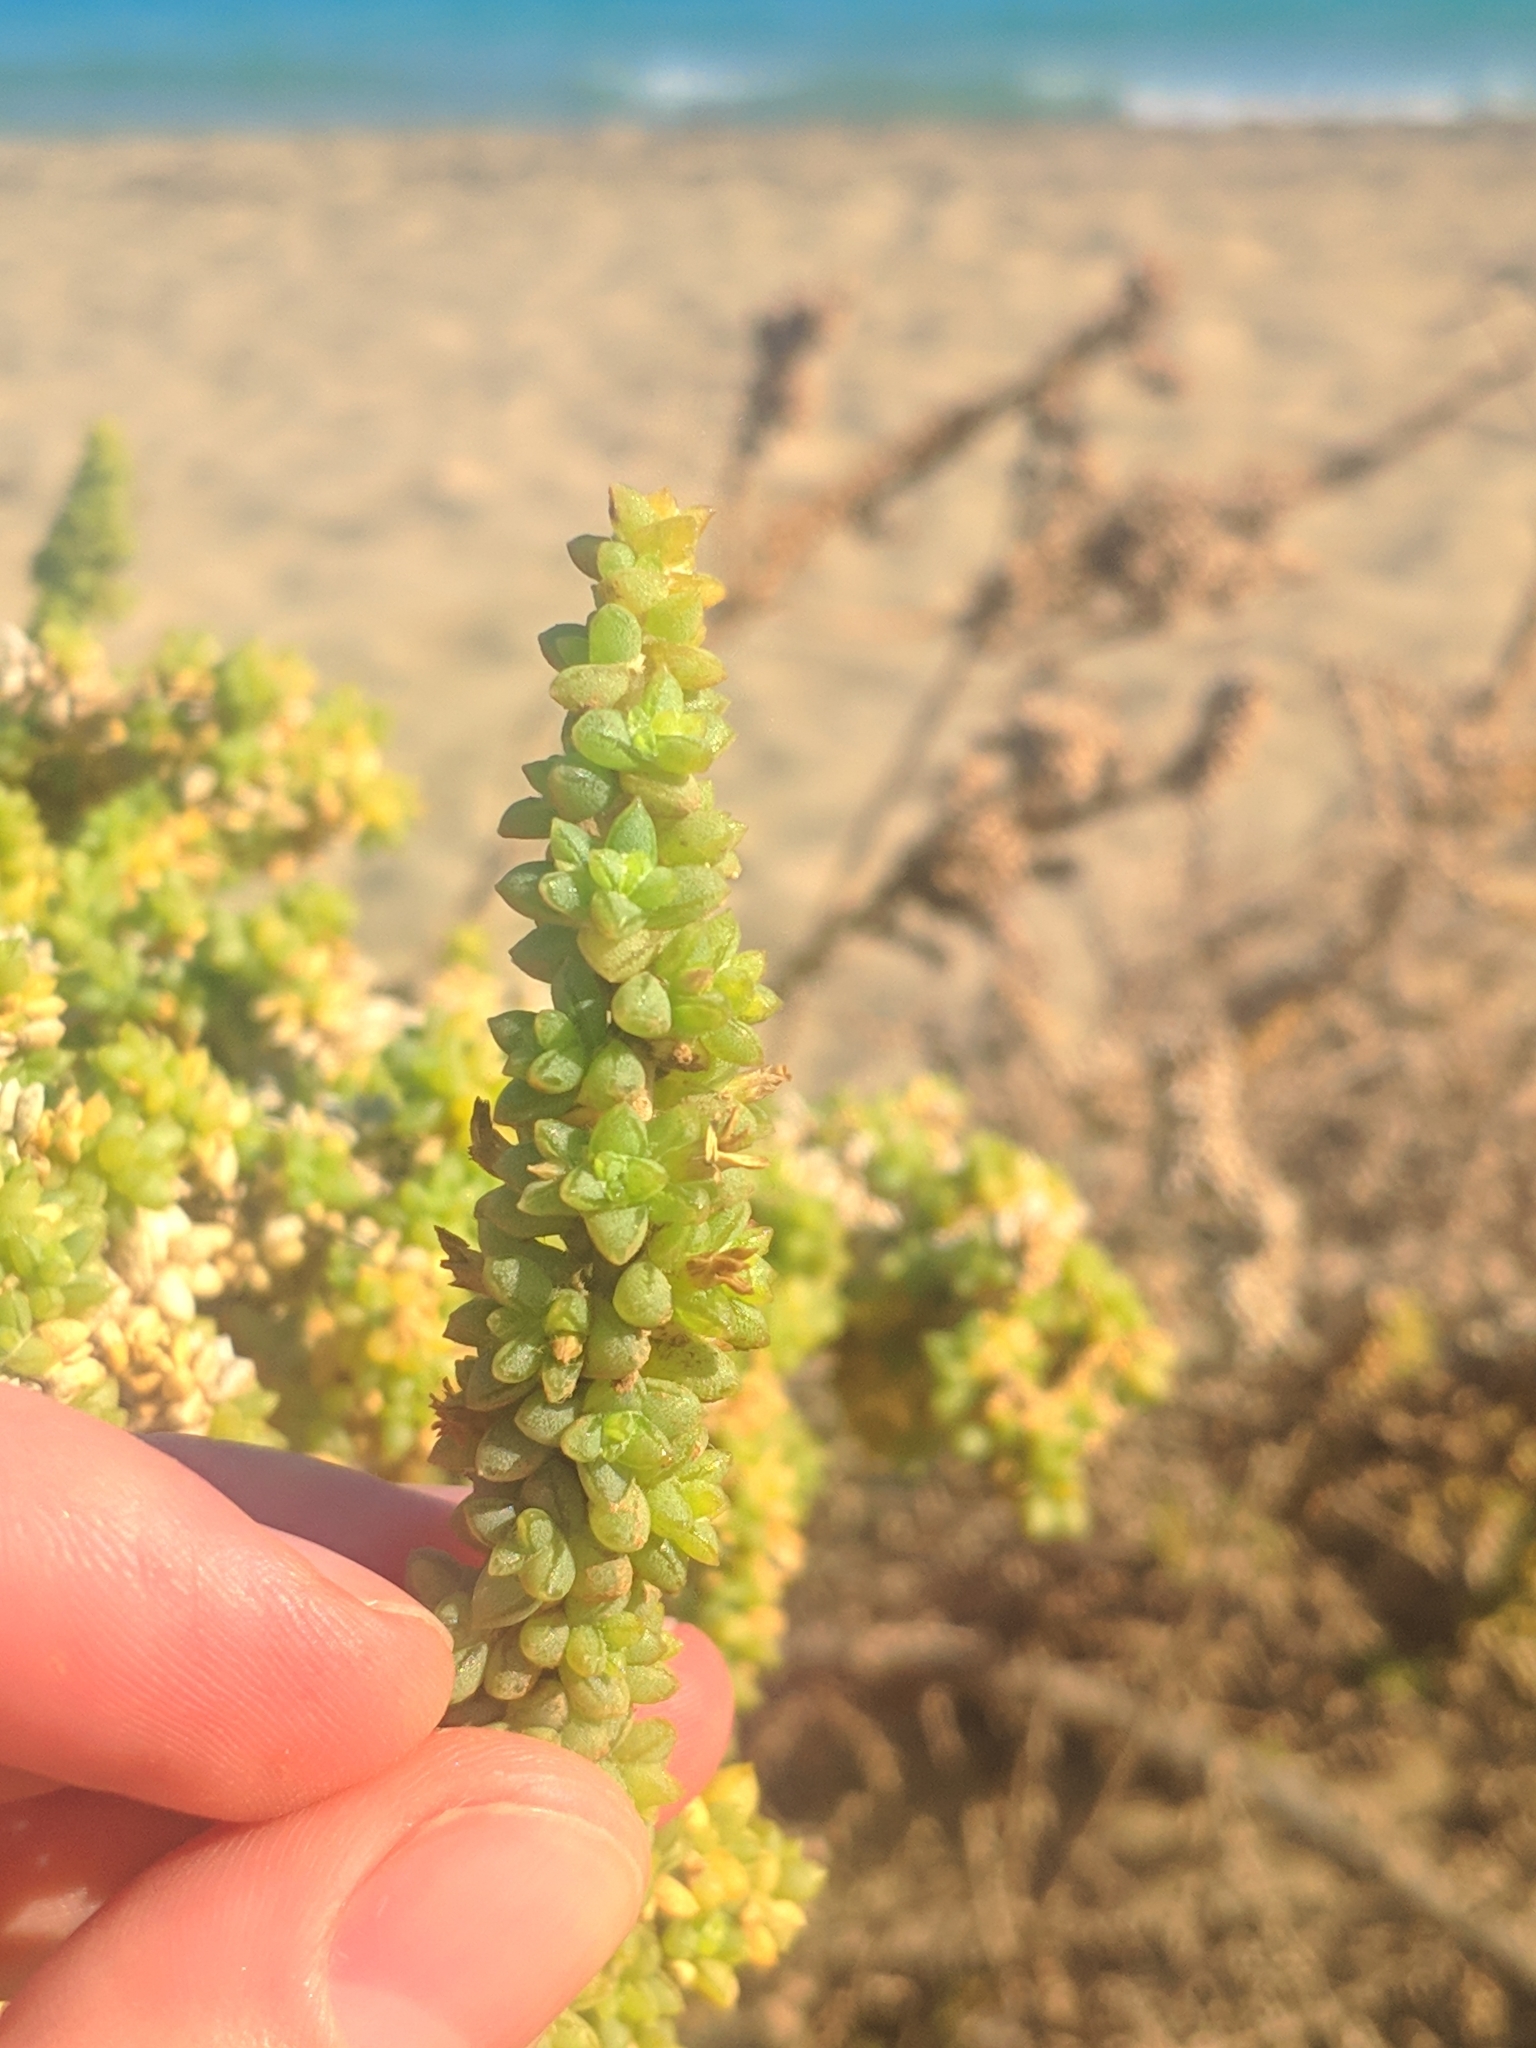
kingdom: Plantae
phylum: Tracheophyta
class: Magnoliopsida
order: Caryophyllales
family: Amaranthaceae
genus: Traganum
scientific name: Traganum moquinii
